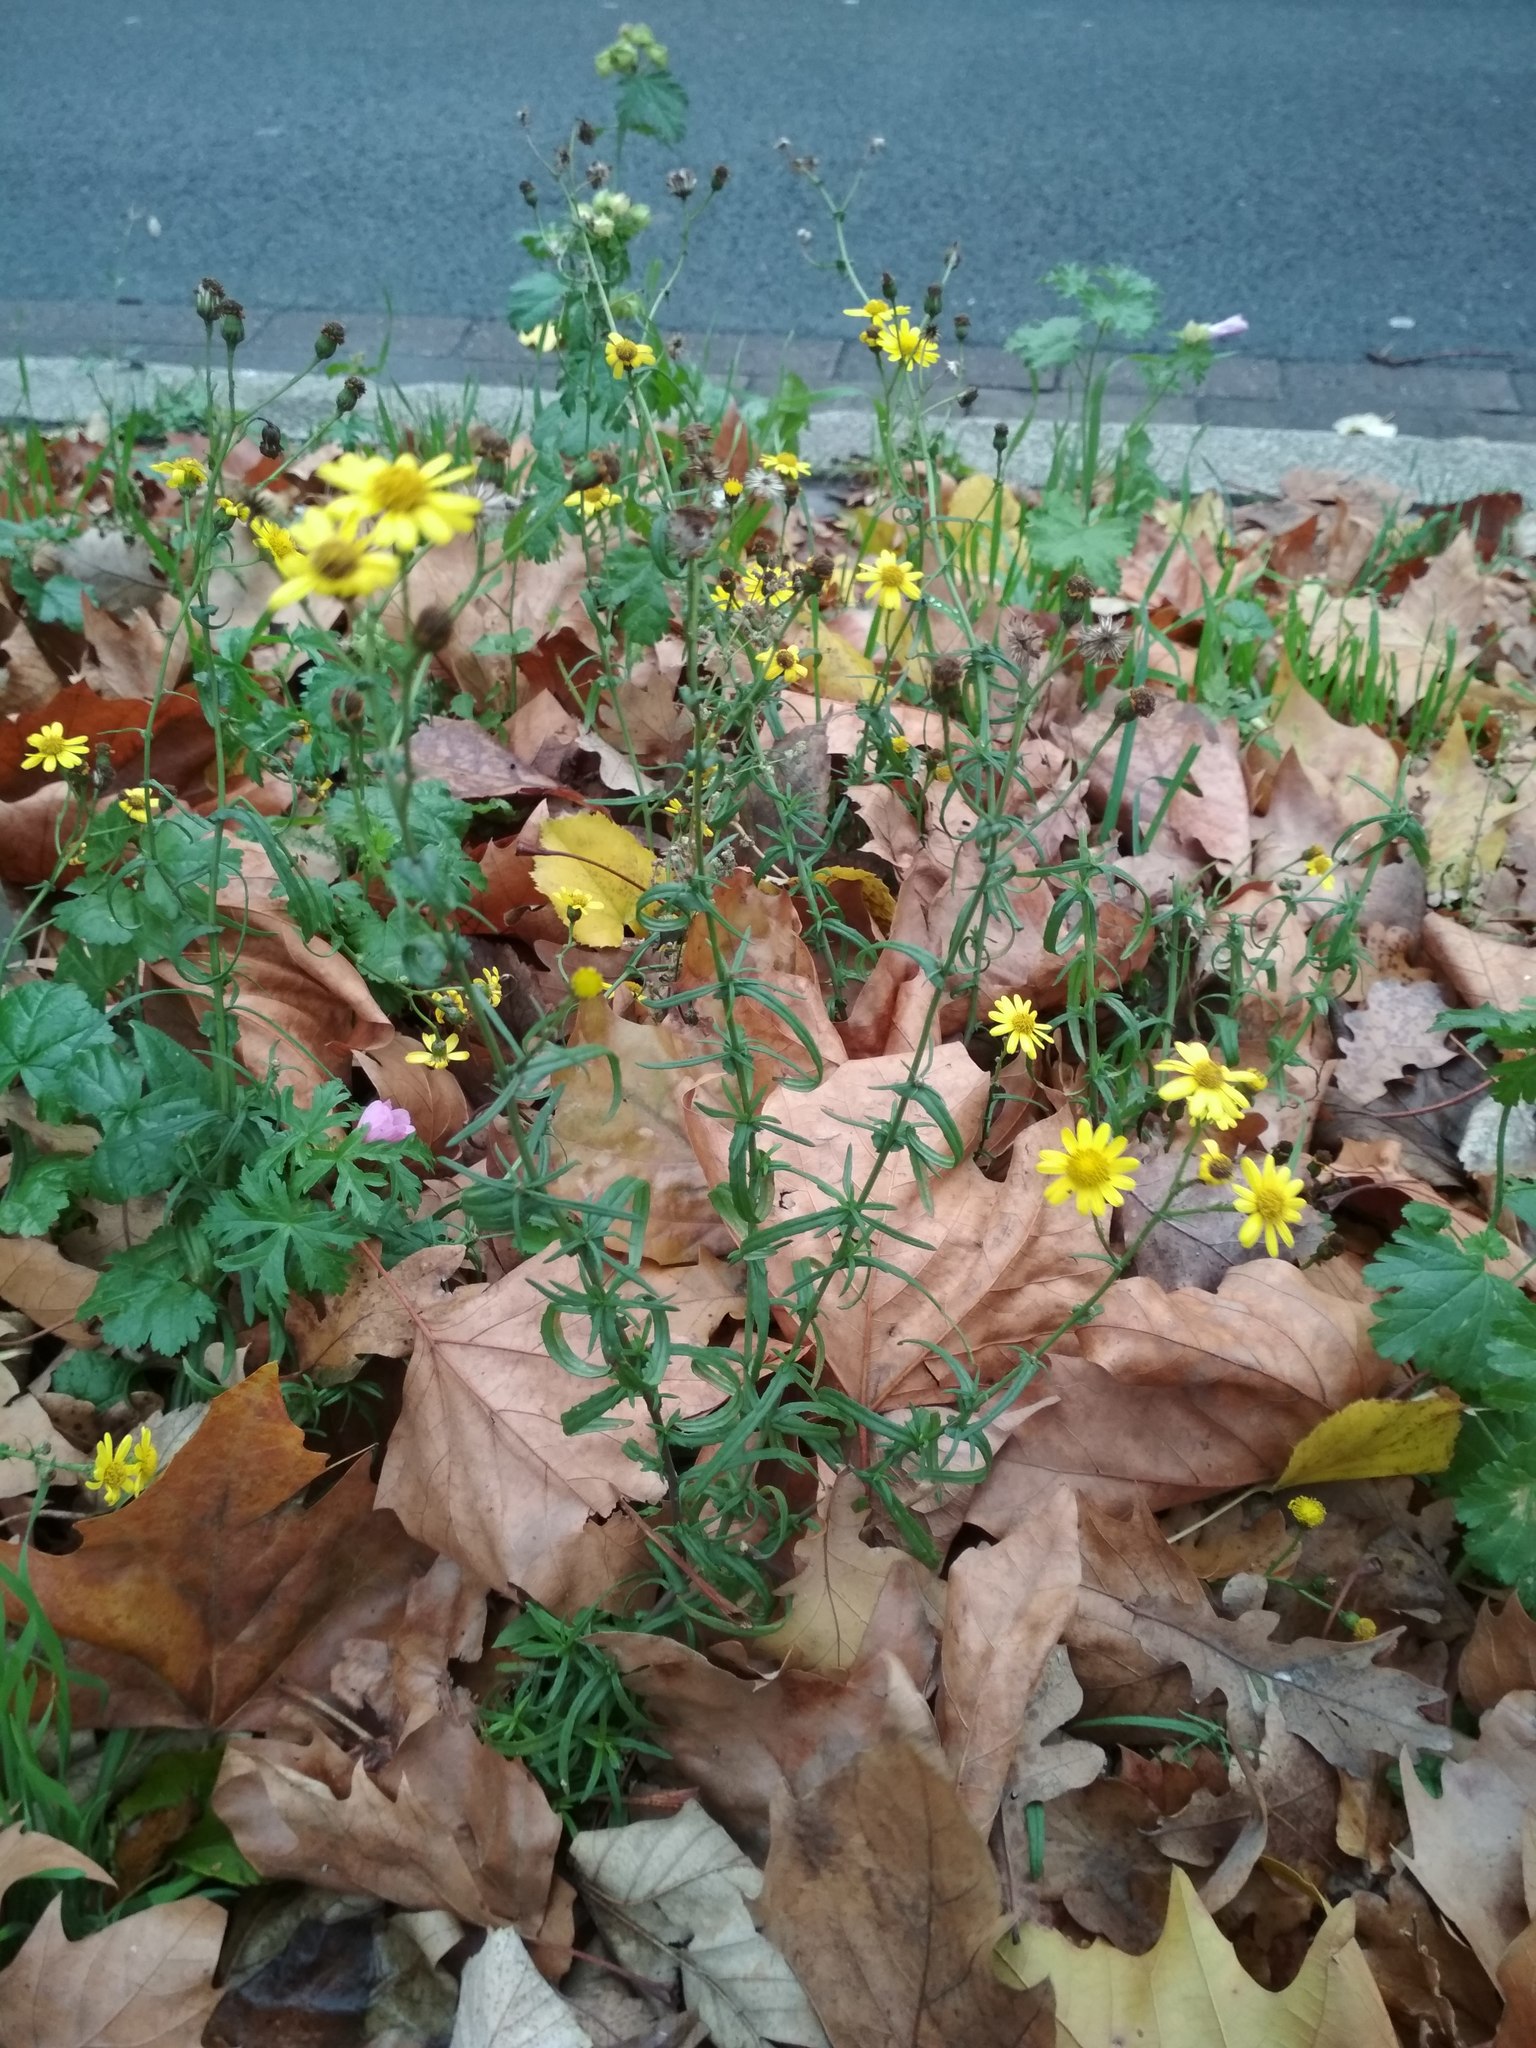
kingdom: Plantae
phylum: Tracheophyta
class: Magnoliopsida
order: Asterales
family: Asteraceae
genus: Senecio
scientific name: Senecio inaequidens
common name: Narrow-leaved ragwort
